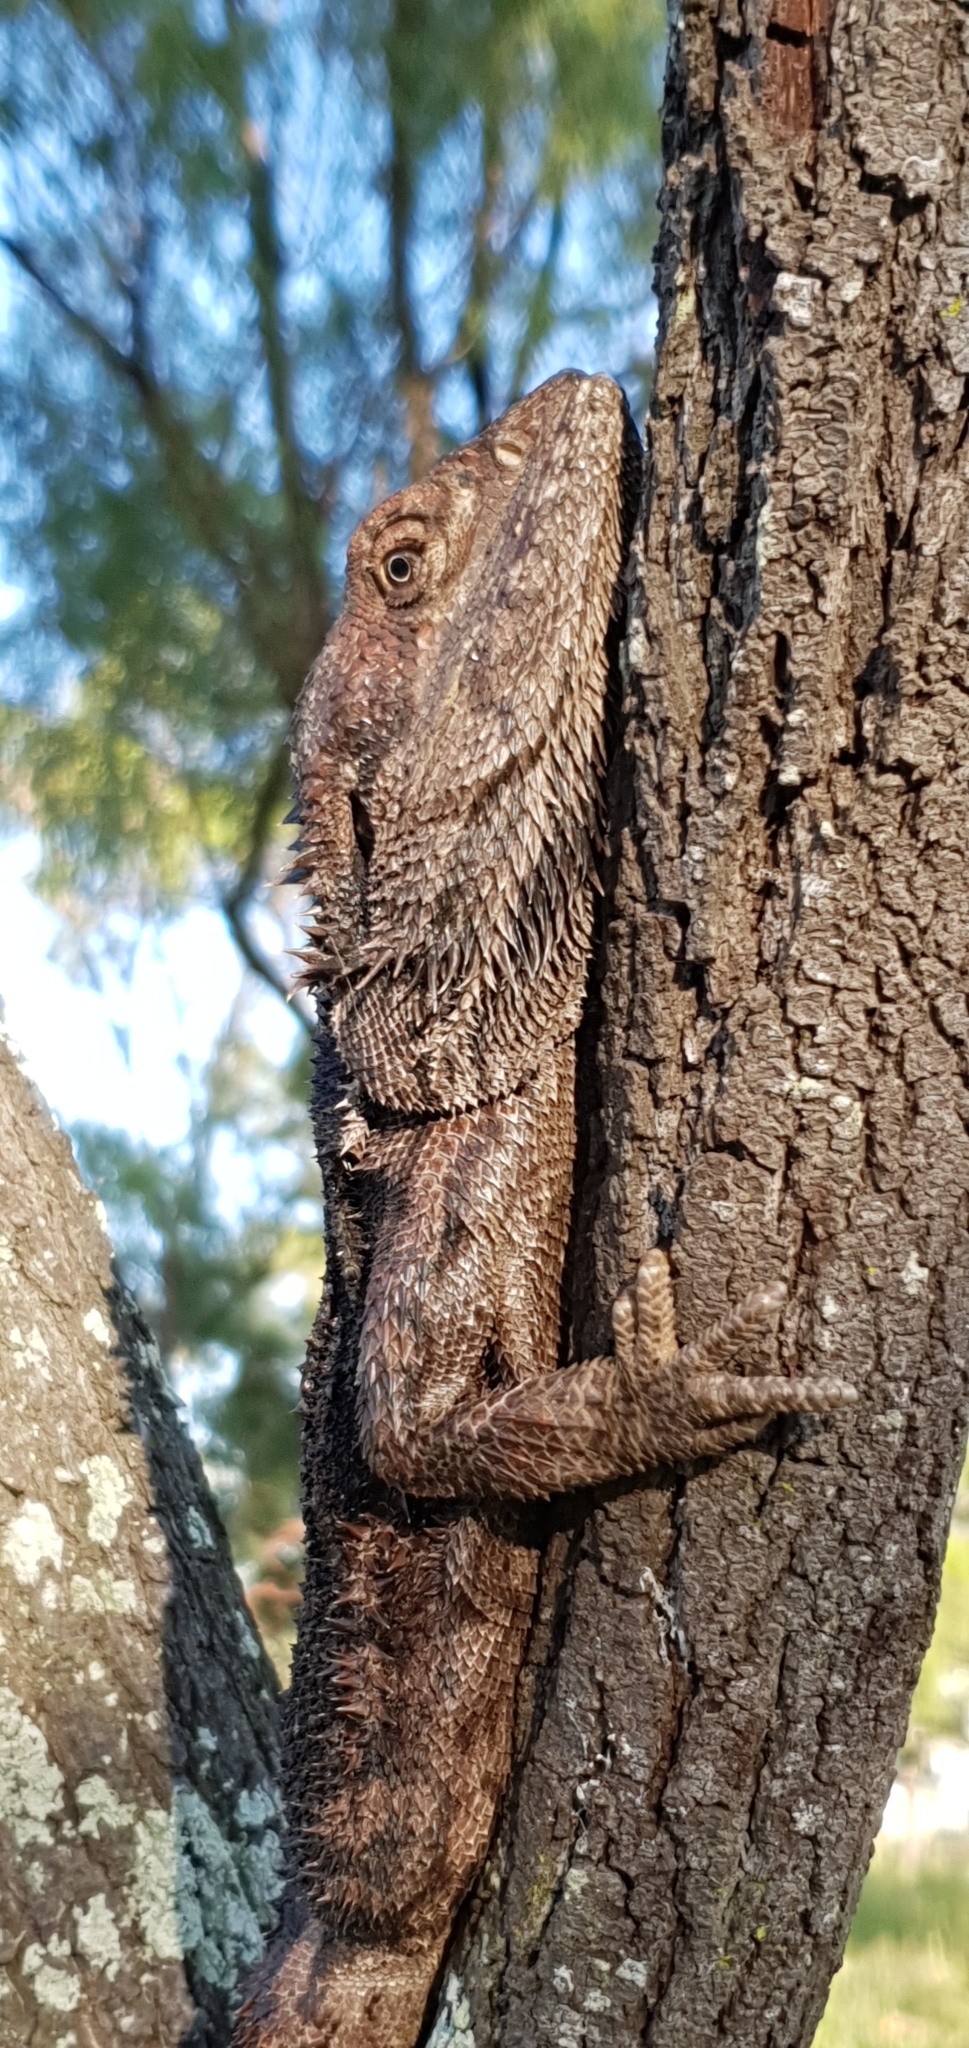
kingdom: Animalia
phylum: Chordata
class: Squamata
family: Agamidae
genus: Pogona
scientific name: Pogona barbata
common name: Bearded dragon
